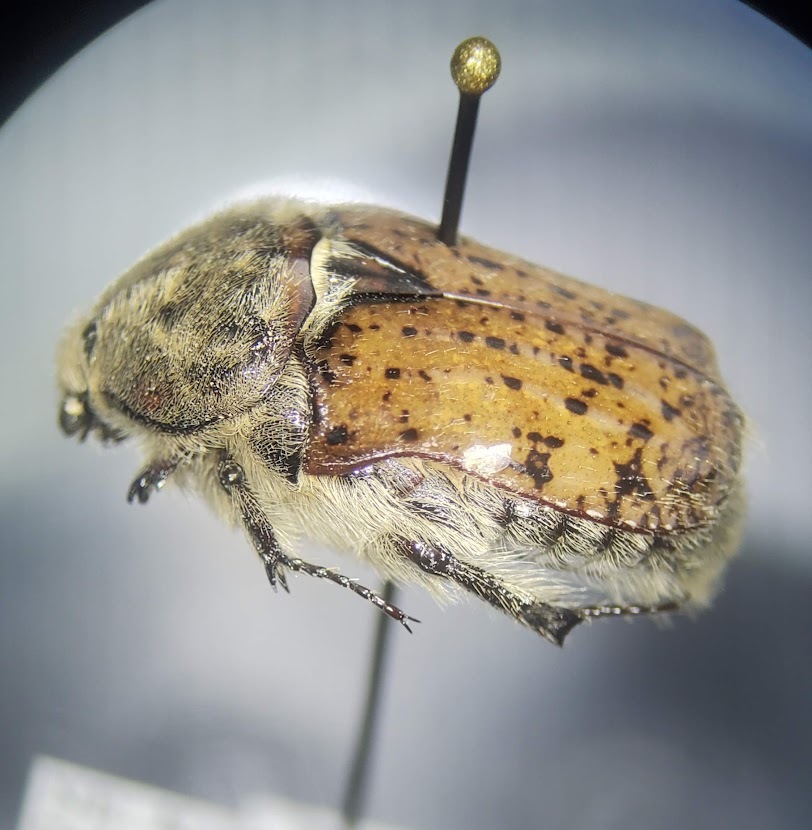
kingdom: Animalia
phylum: Arthropoda
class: Insecta
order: Coleoptera
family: Scarabaeidae
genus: Euphoria
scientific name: Euphoria inda
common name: Bumble flower beetle
